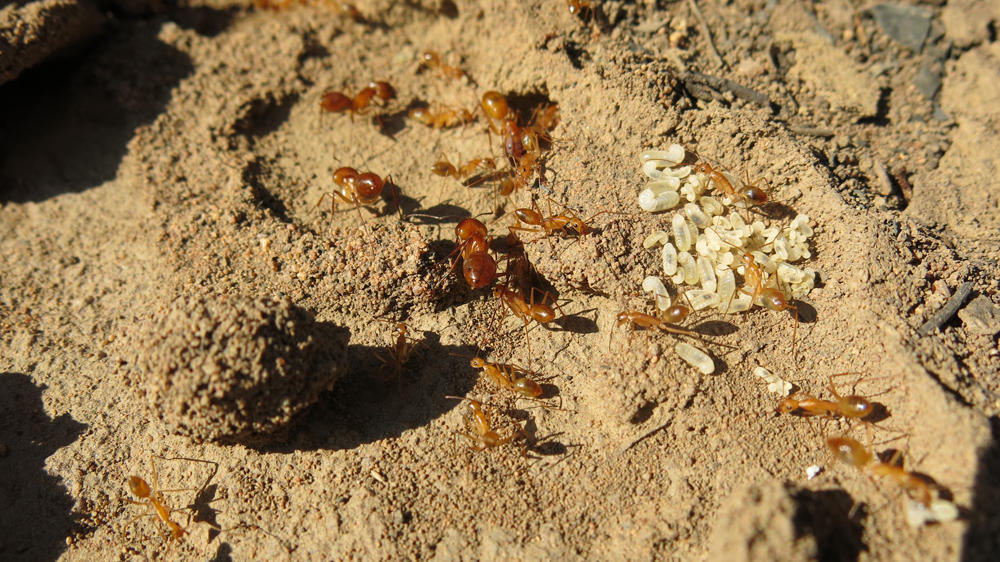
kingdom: Animalia
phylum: Arthropoda
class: Insecta
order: Hymenoptera
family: Formicidae
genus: Camponotus
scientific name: Camponotus cuneiscapus
